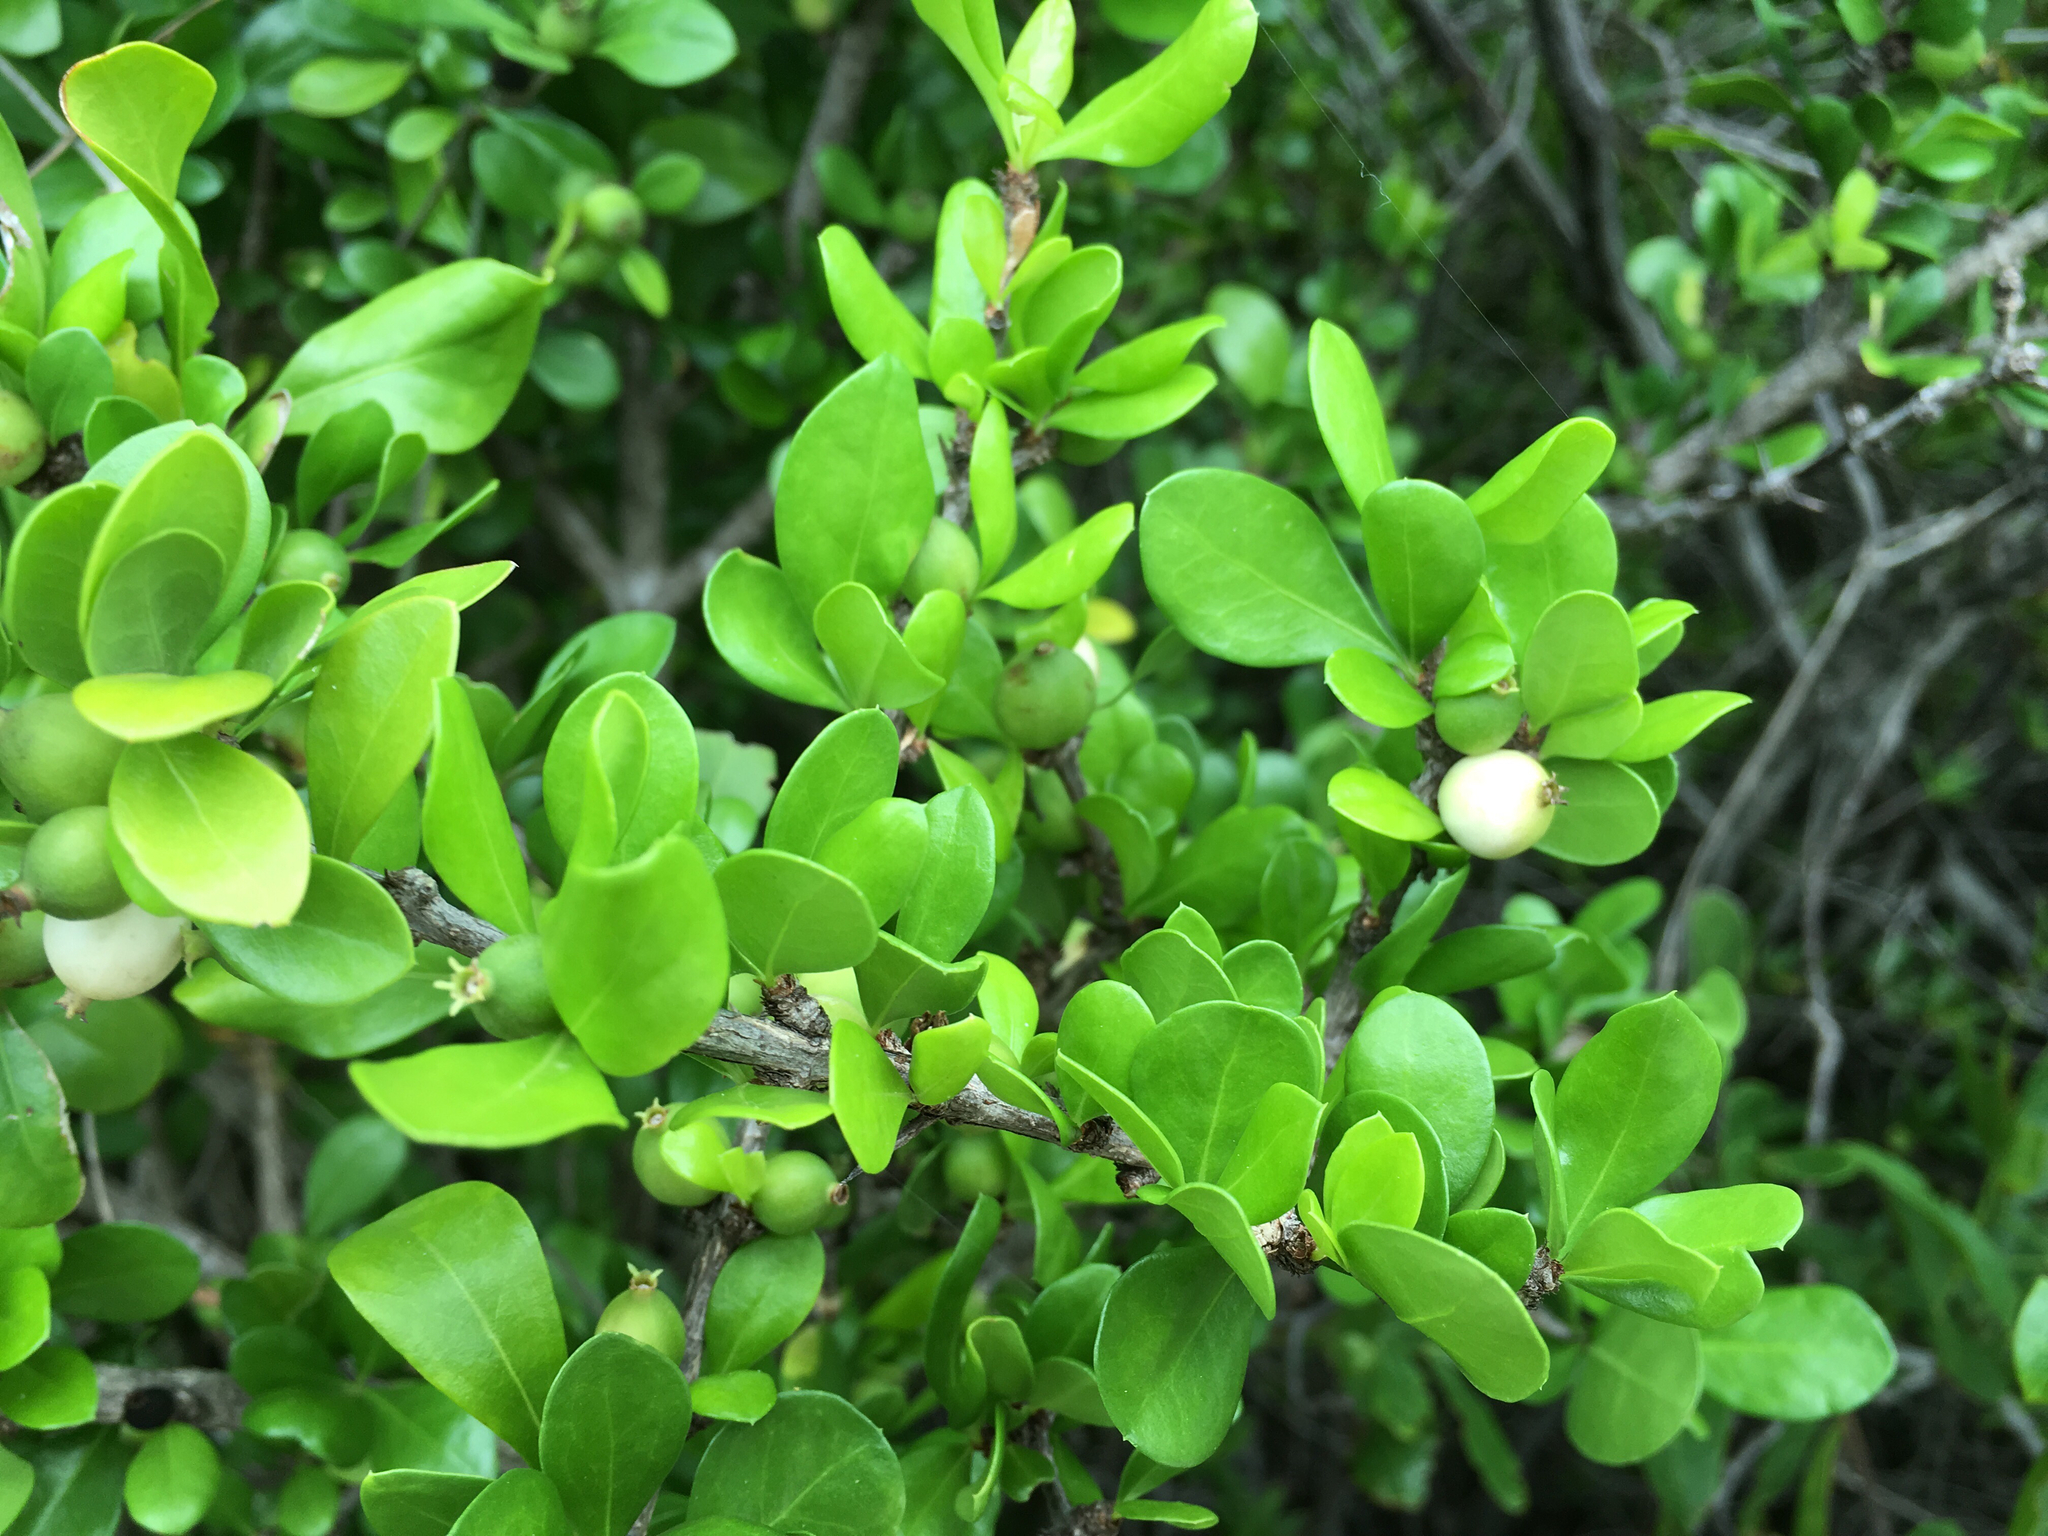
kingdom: Plantae
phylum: Tracheophyta
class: Magnoliopsida
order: Gentianales
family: Rubiaceae
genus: Randia
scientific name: Randia aculeata
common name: Inkberry
